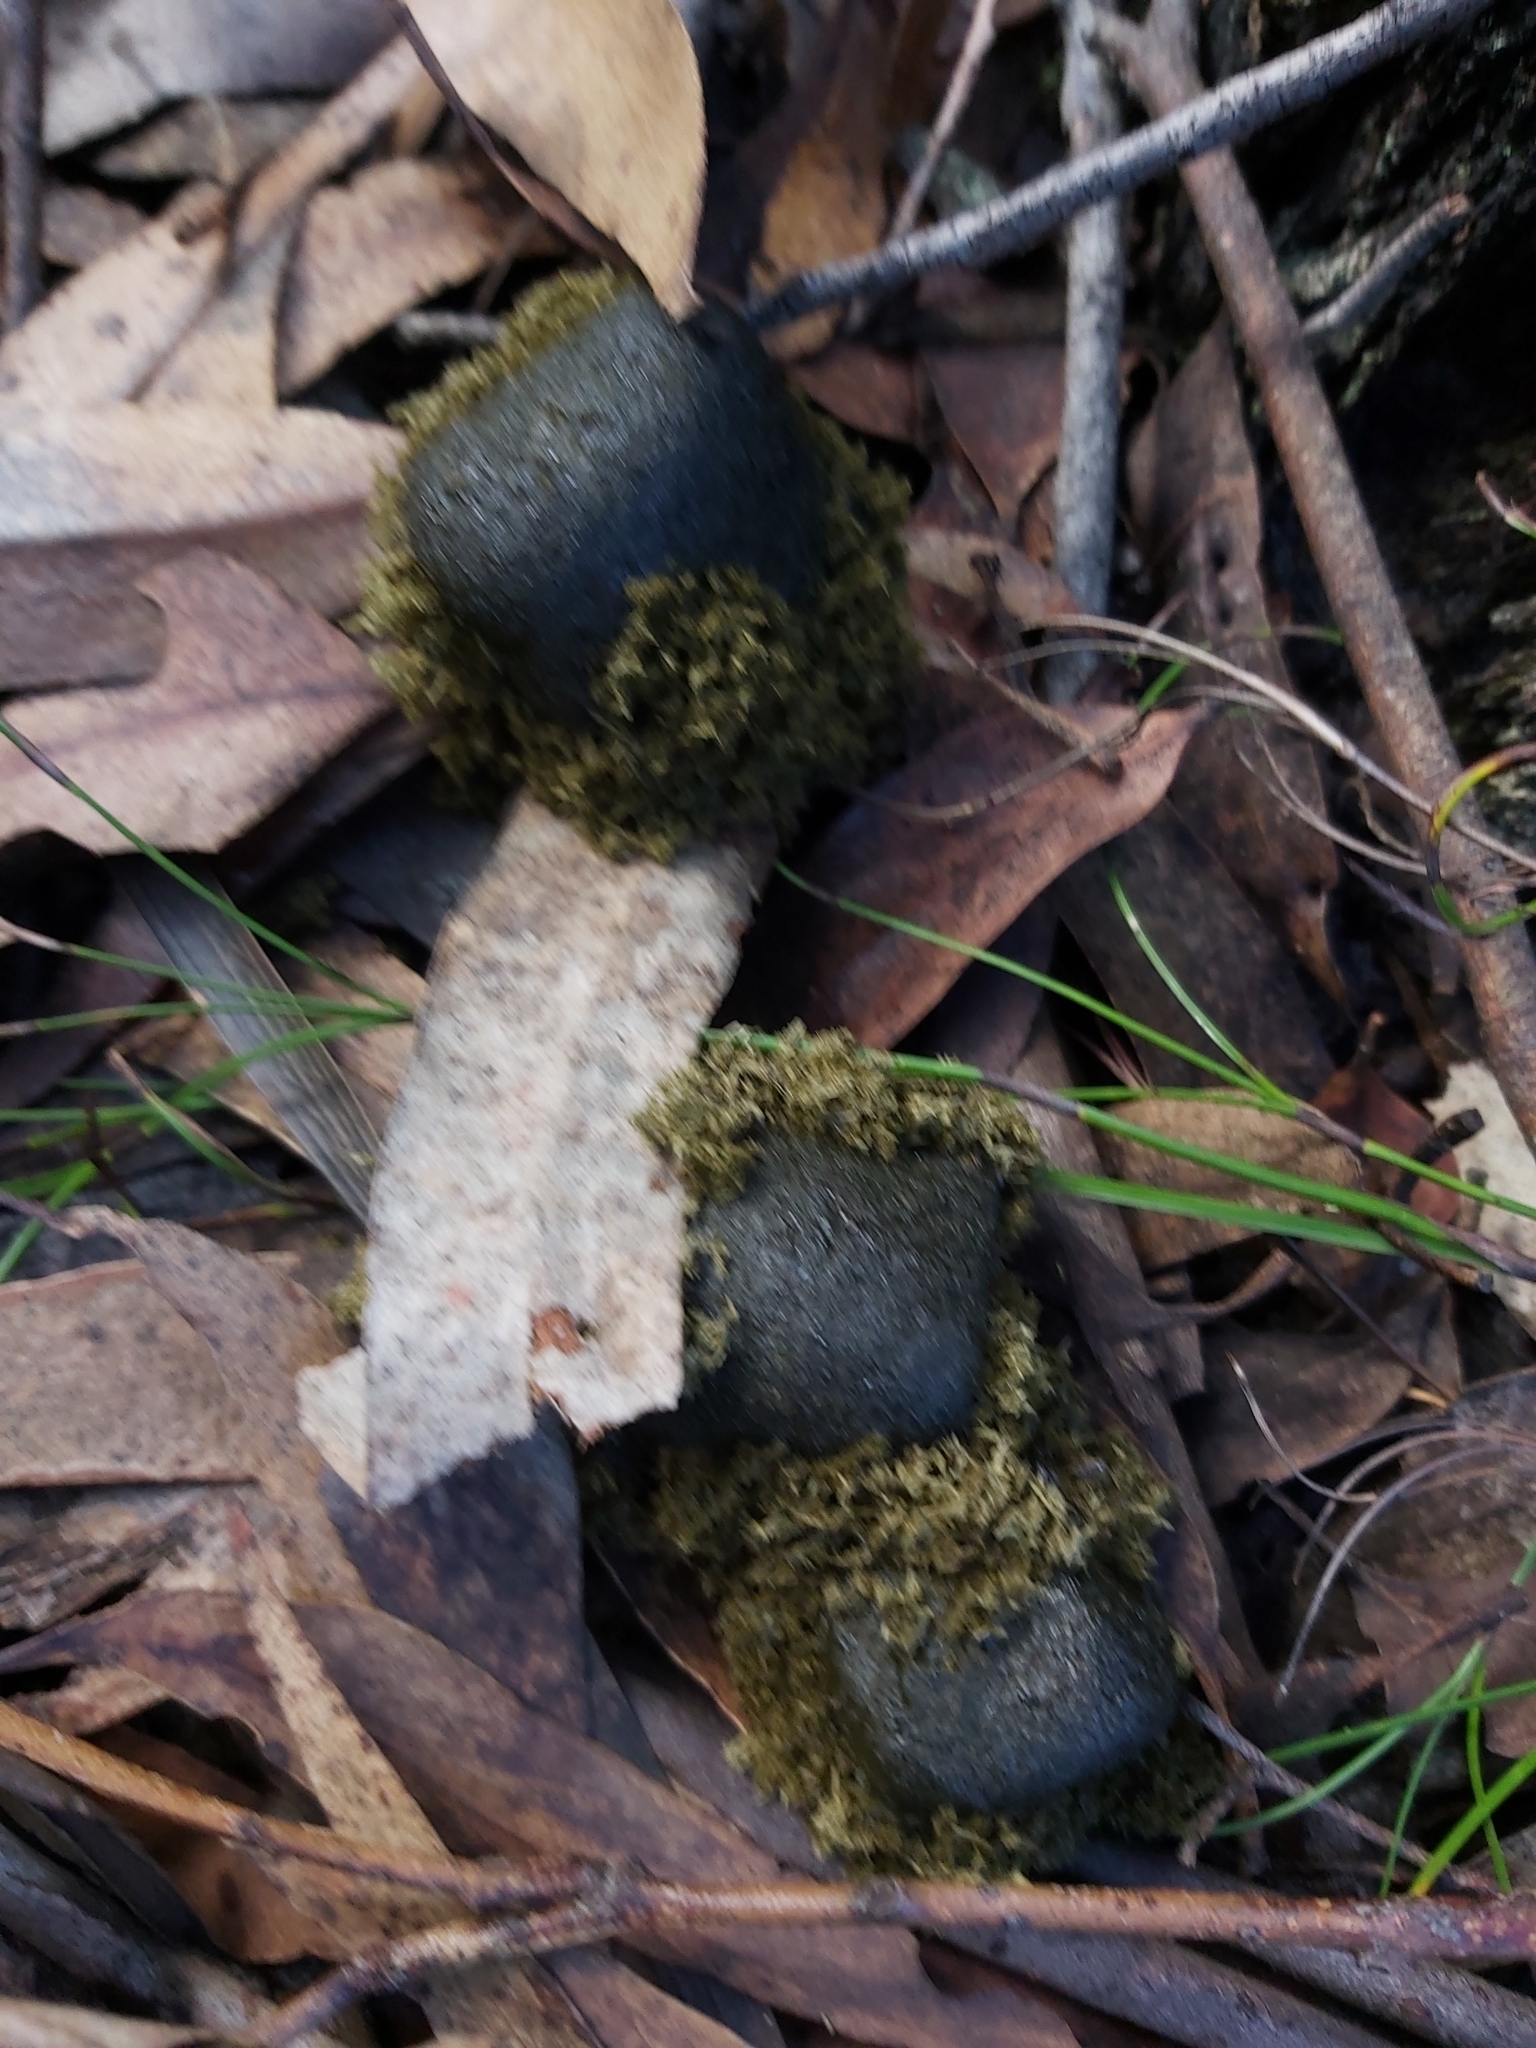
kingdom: Animalia
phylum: Chordata
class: Mammalia
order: Diprotodontia
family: Vombatidae
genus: Vombatus
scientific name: Vombatus ursinus
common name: Common wombat
